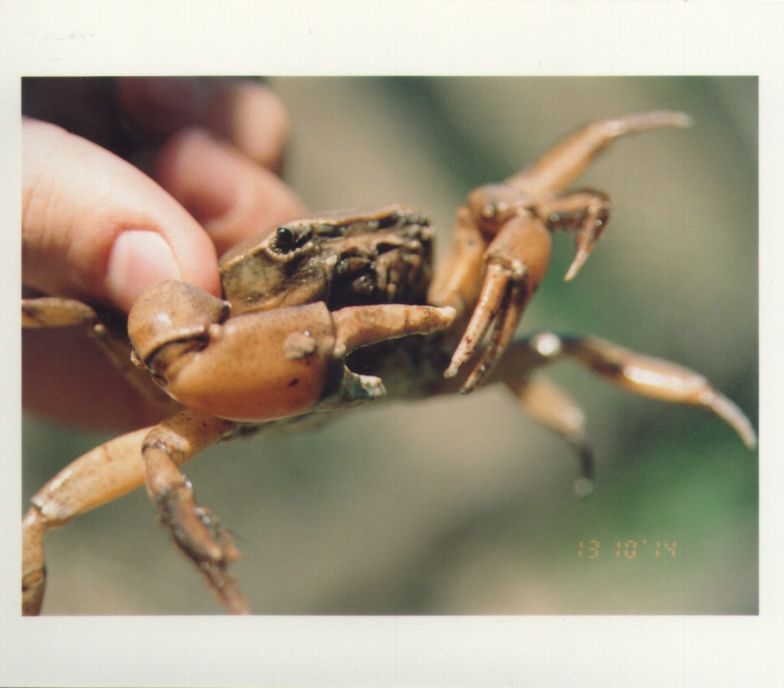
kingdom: Animalia
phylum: Arthropoda
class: Malacostraca
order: Decapoda
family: Trichodactylidae
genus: Zilchiopsis
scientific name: Zilchiopsis collastinensis
